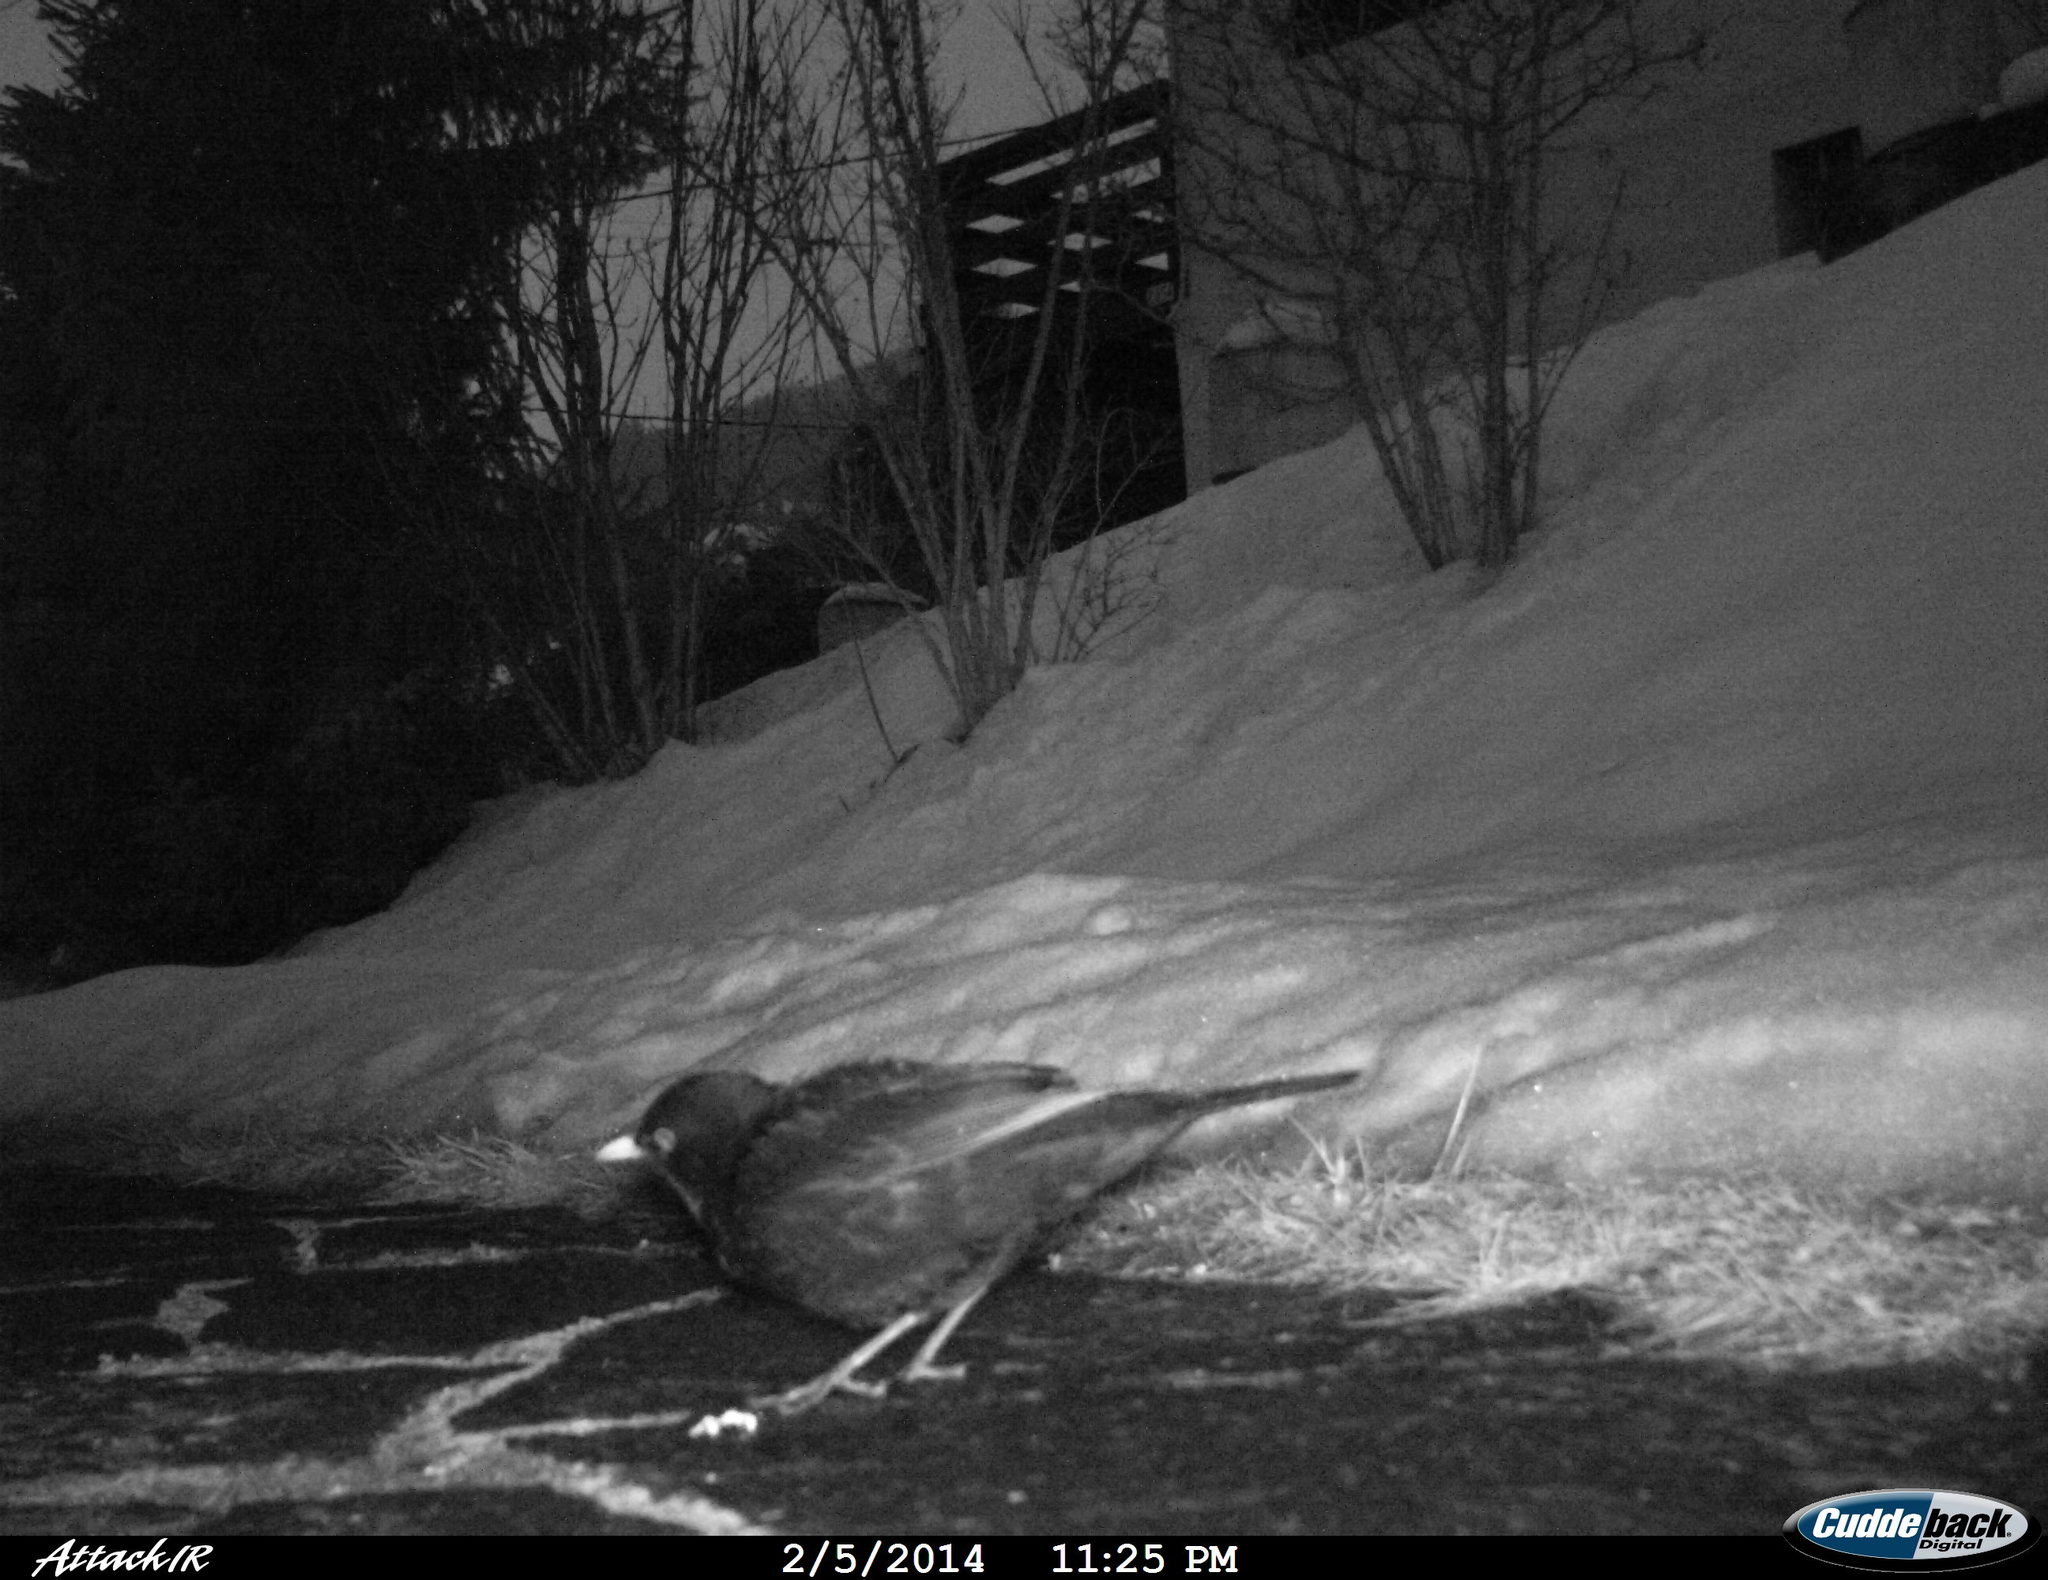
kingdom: Animalia
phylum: Chordata
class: Aves
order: Passeriformes
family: Turdidae
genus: Turdus
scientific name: Turdus merula
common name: Common blackbird
